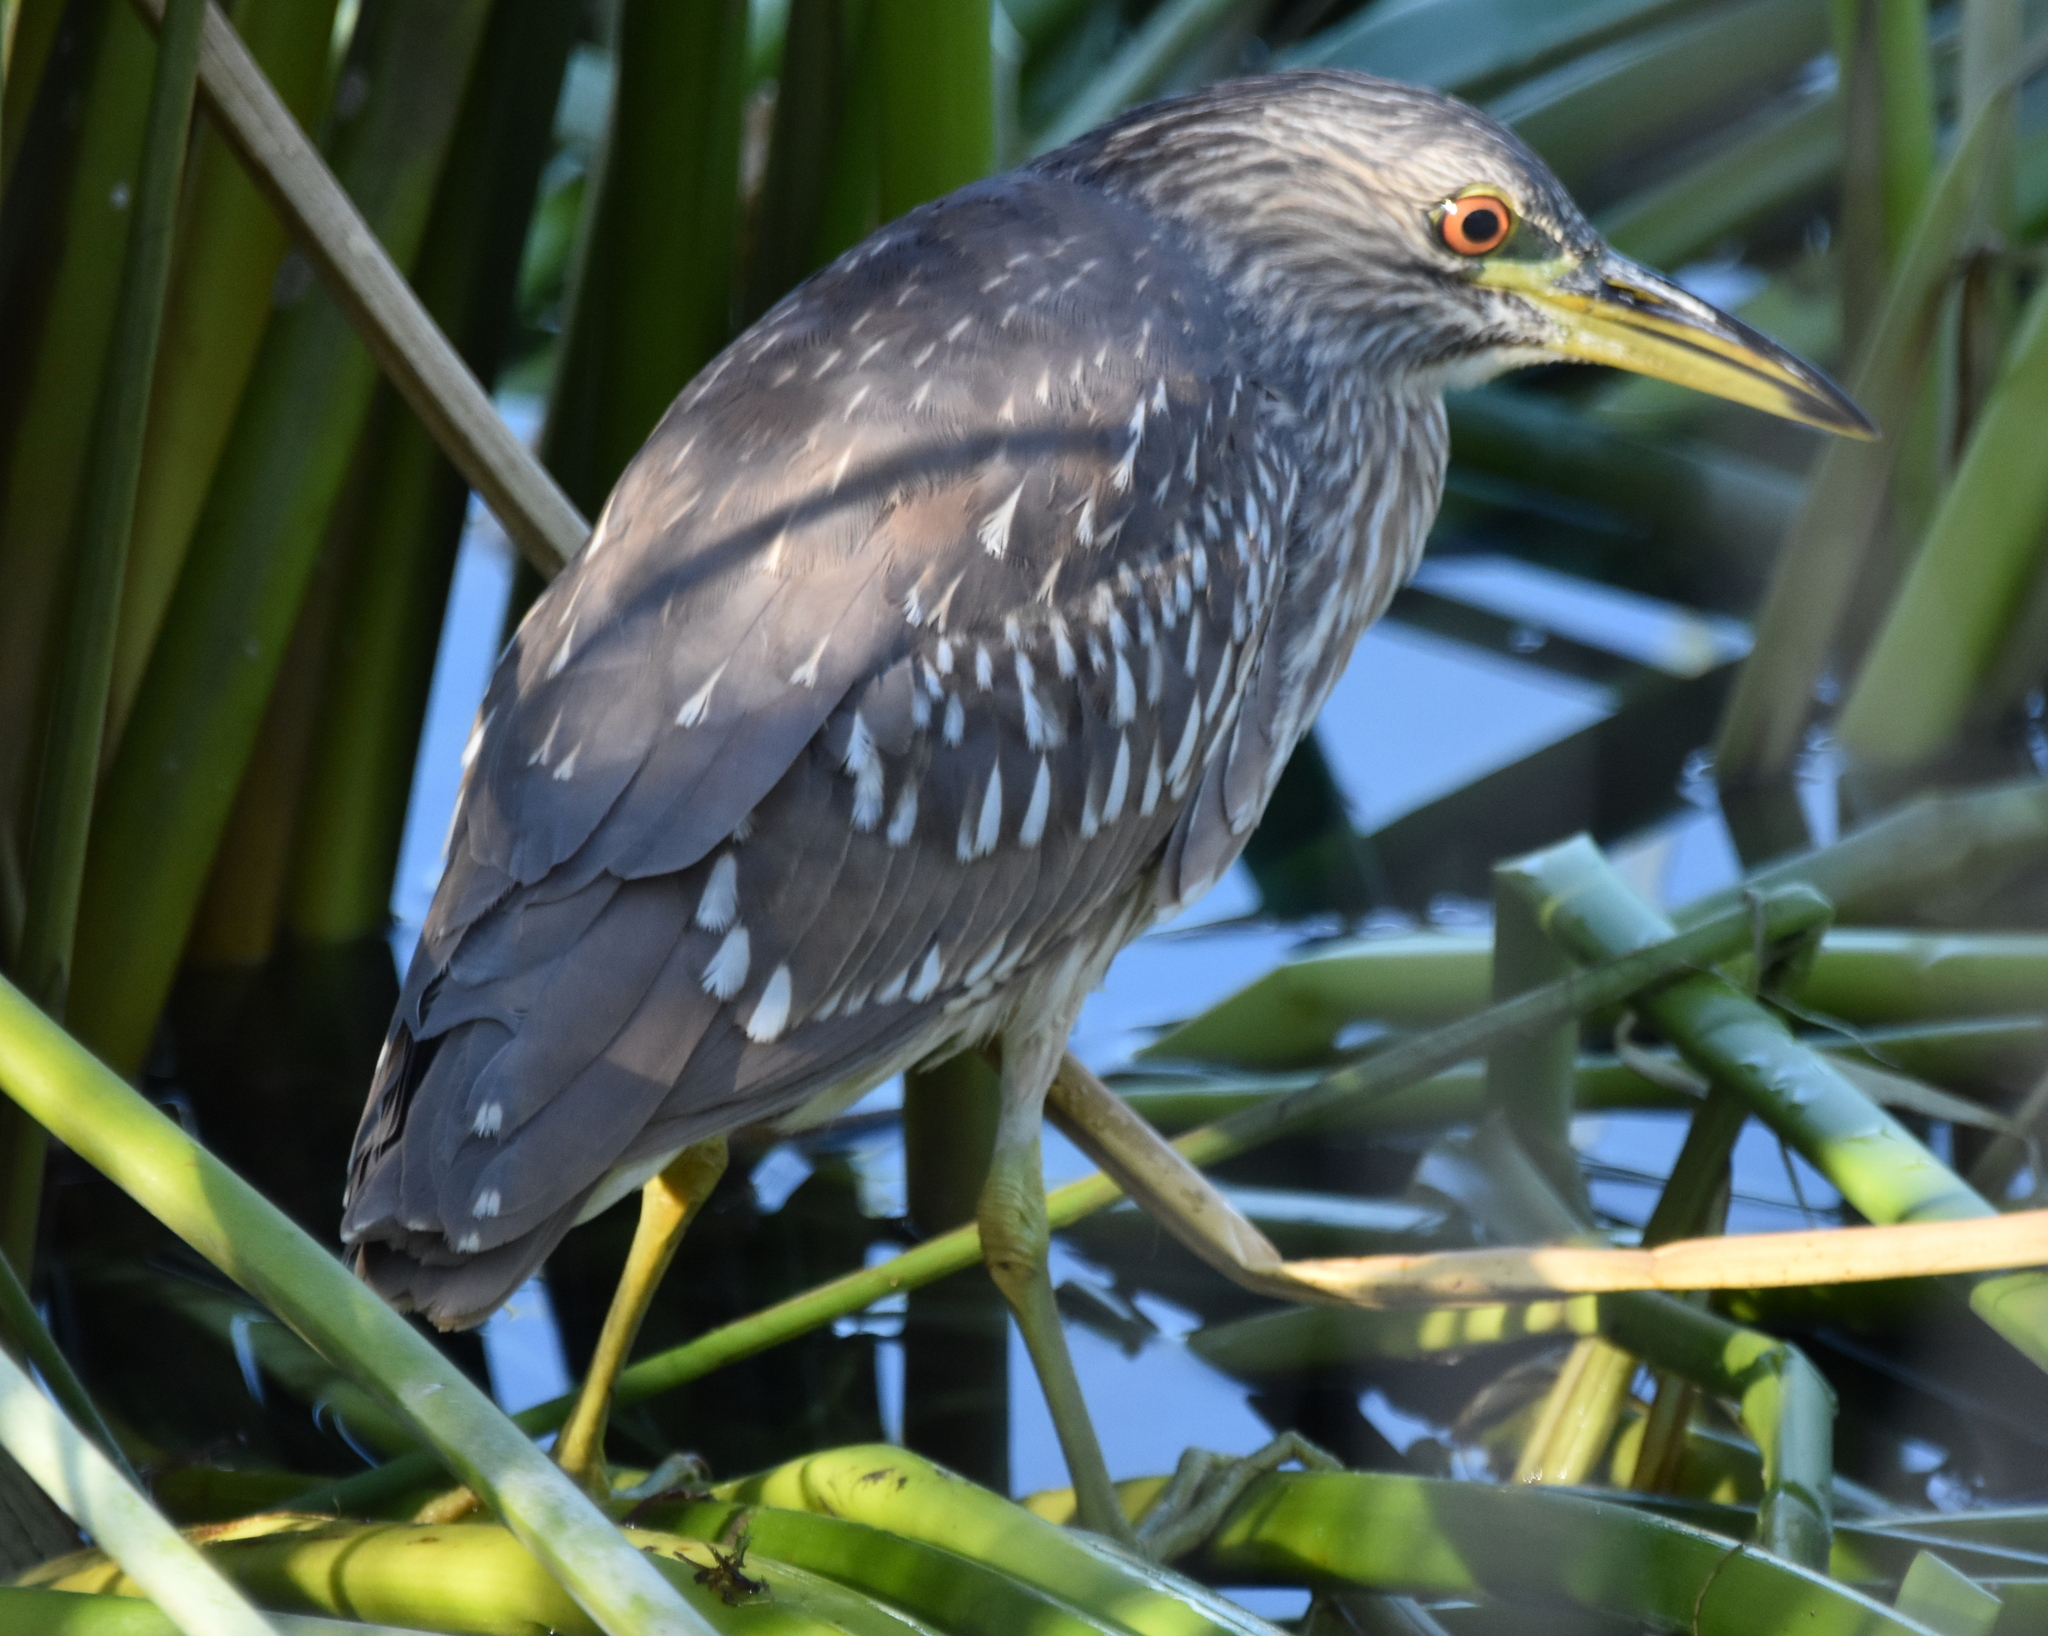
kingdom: Animalia
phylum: Chordata
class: Aves
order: Pelecaniformes
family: Ardeidae
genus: Nycticorax
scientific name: Nycticorax nycticorax
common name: Black-crowned night heron
